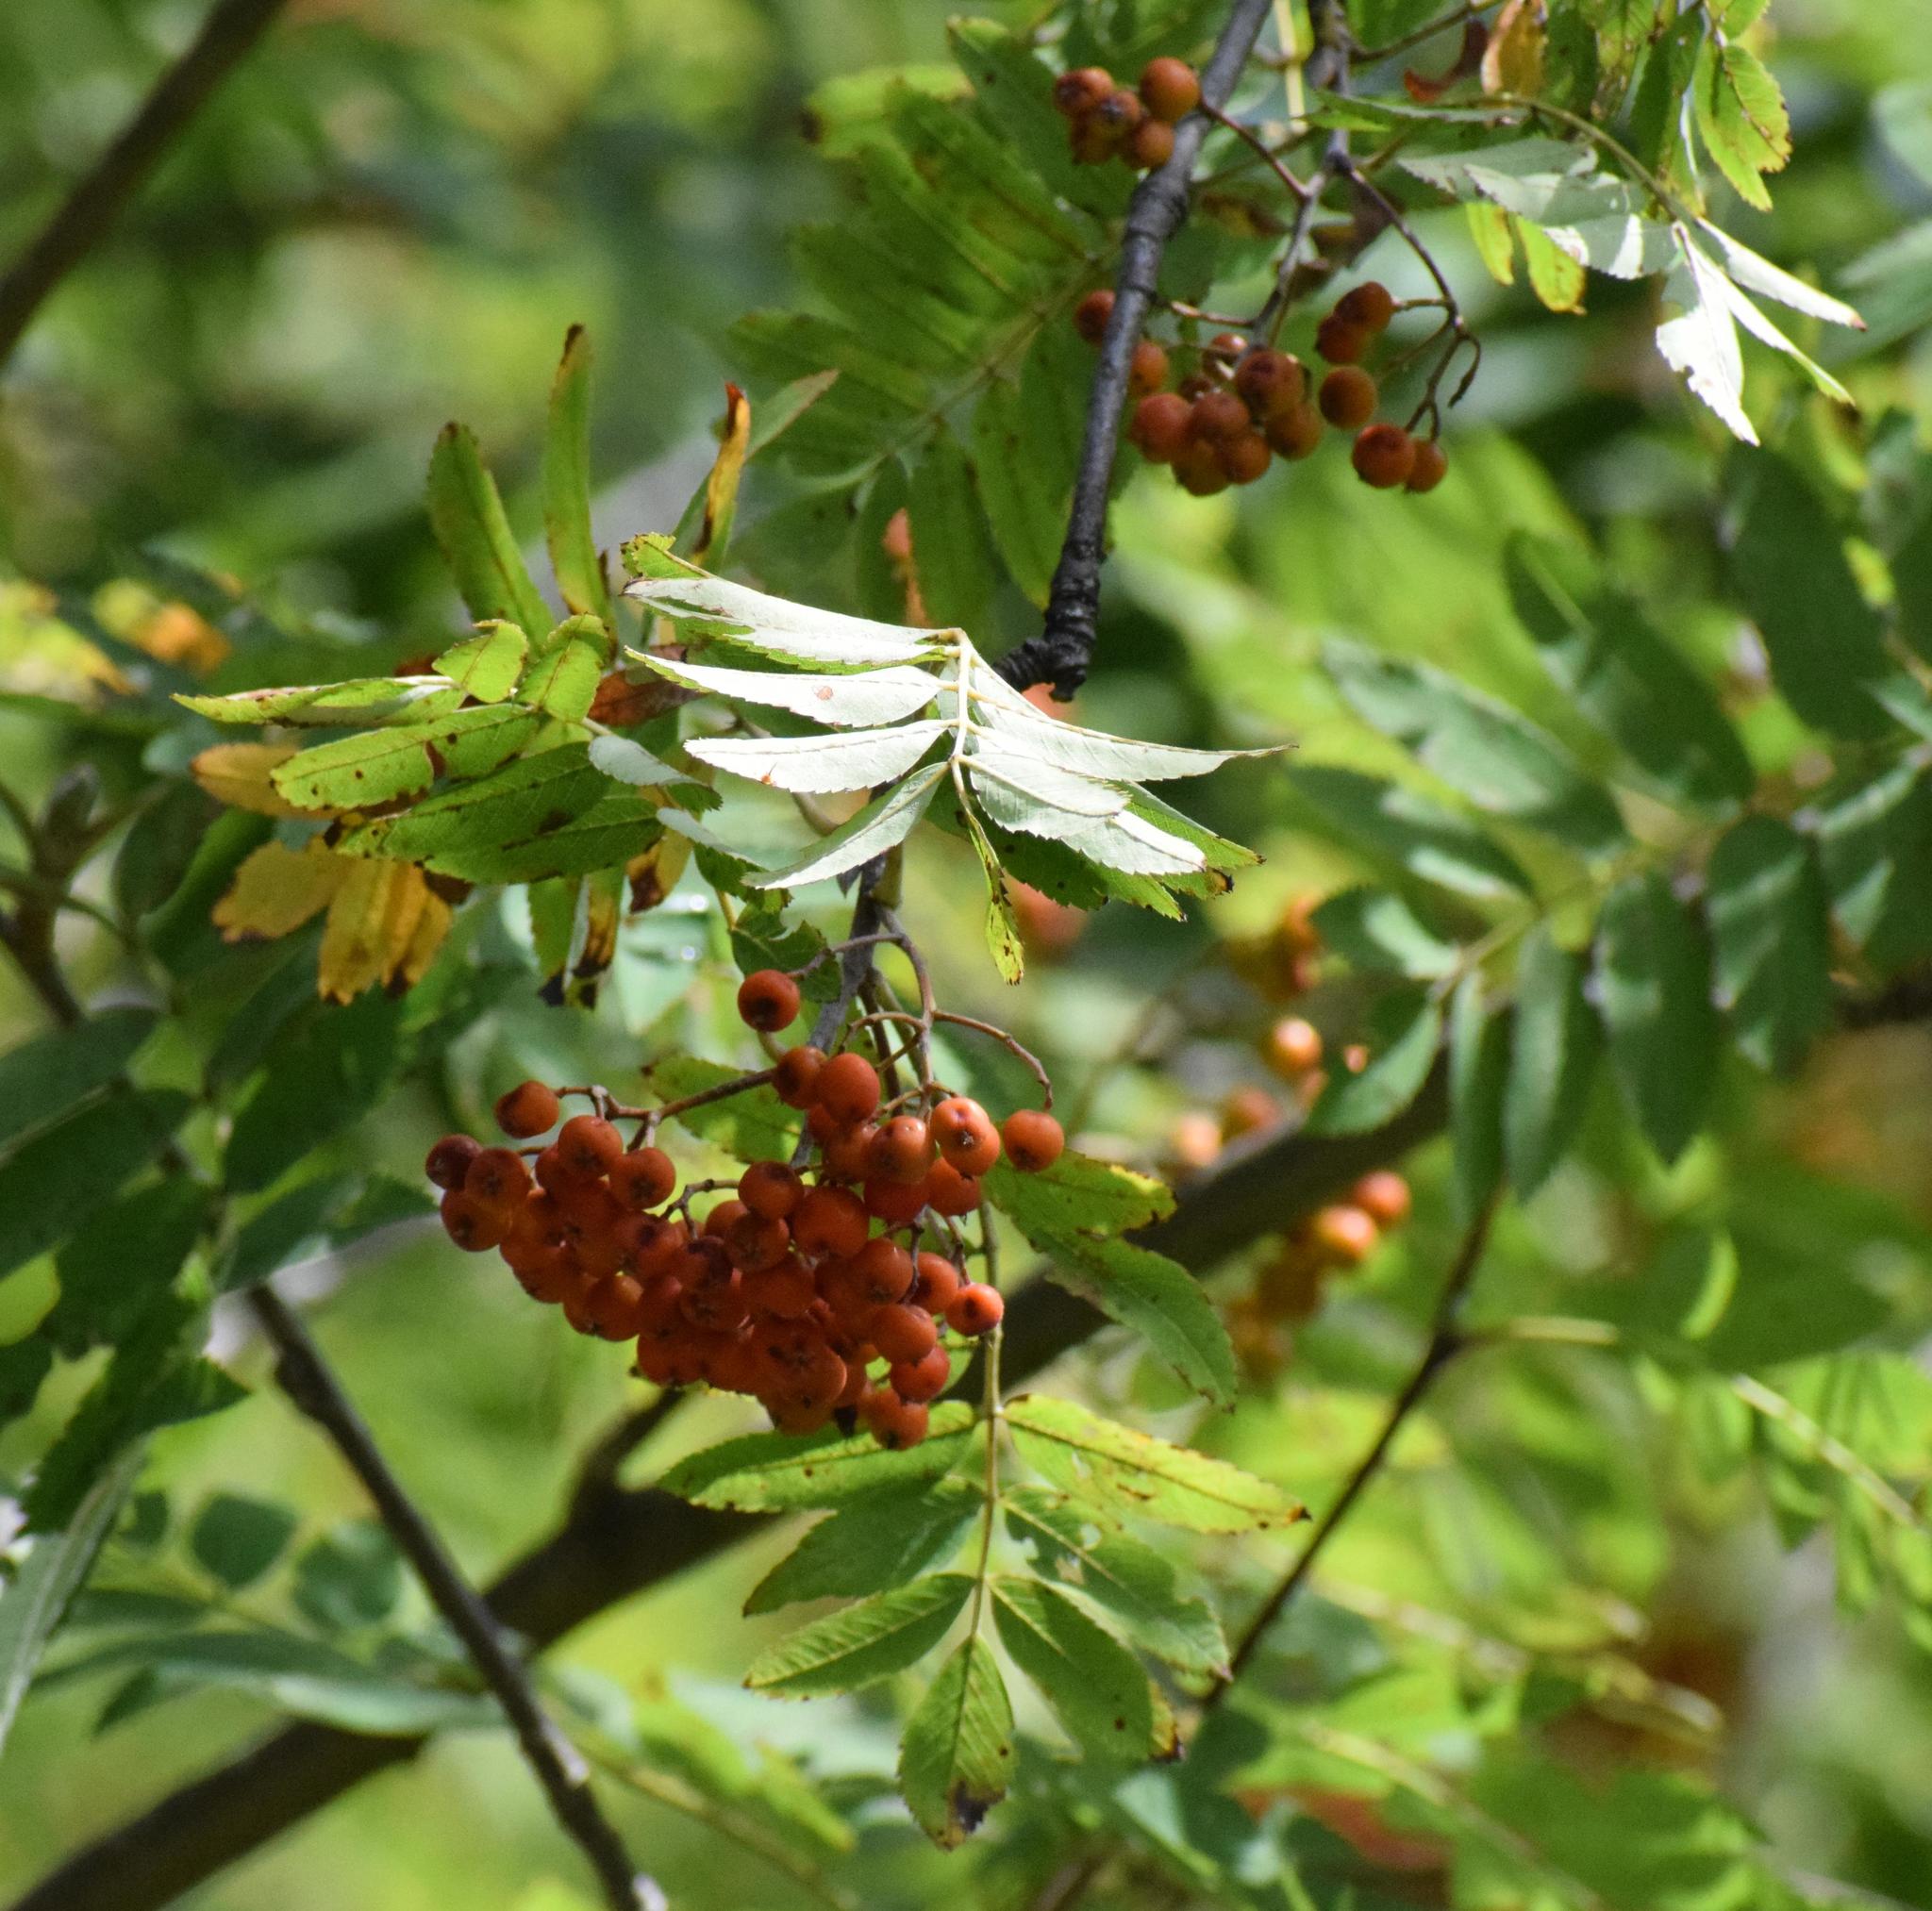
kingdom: Plantae
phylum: Tracheophyta
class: Magnoliopsida
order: Rosales
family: Rosaceae
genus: Sorbus
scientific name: Sorbus aucuparia
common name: Rowan
